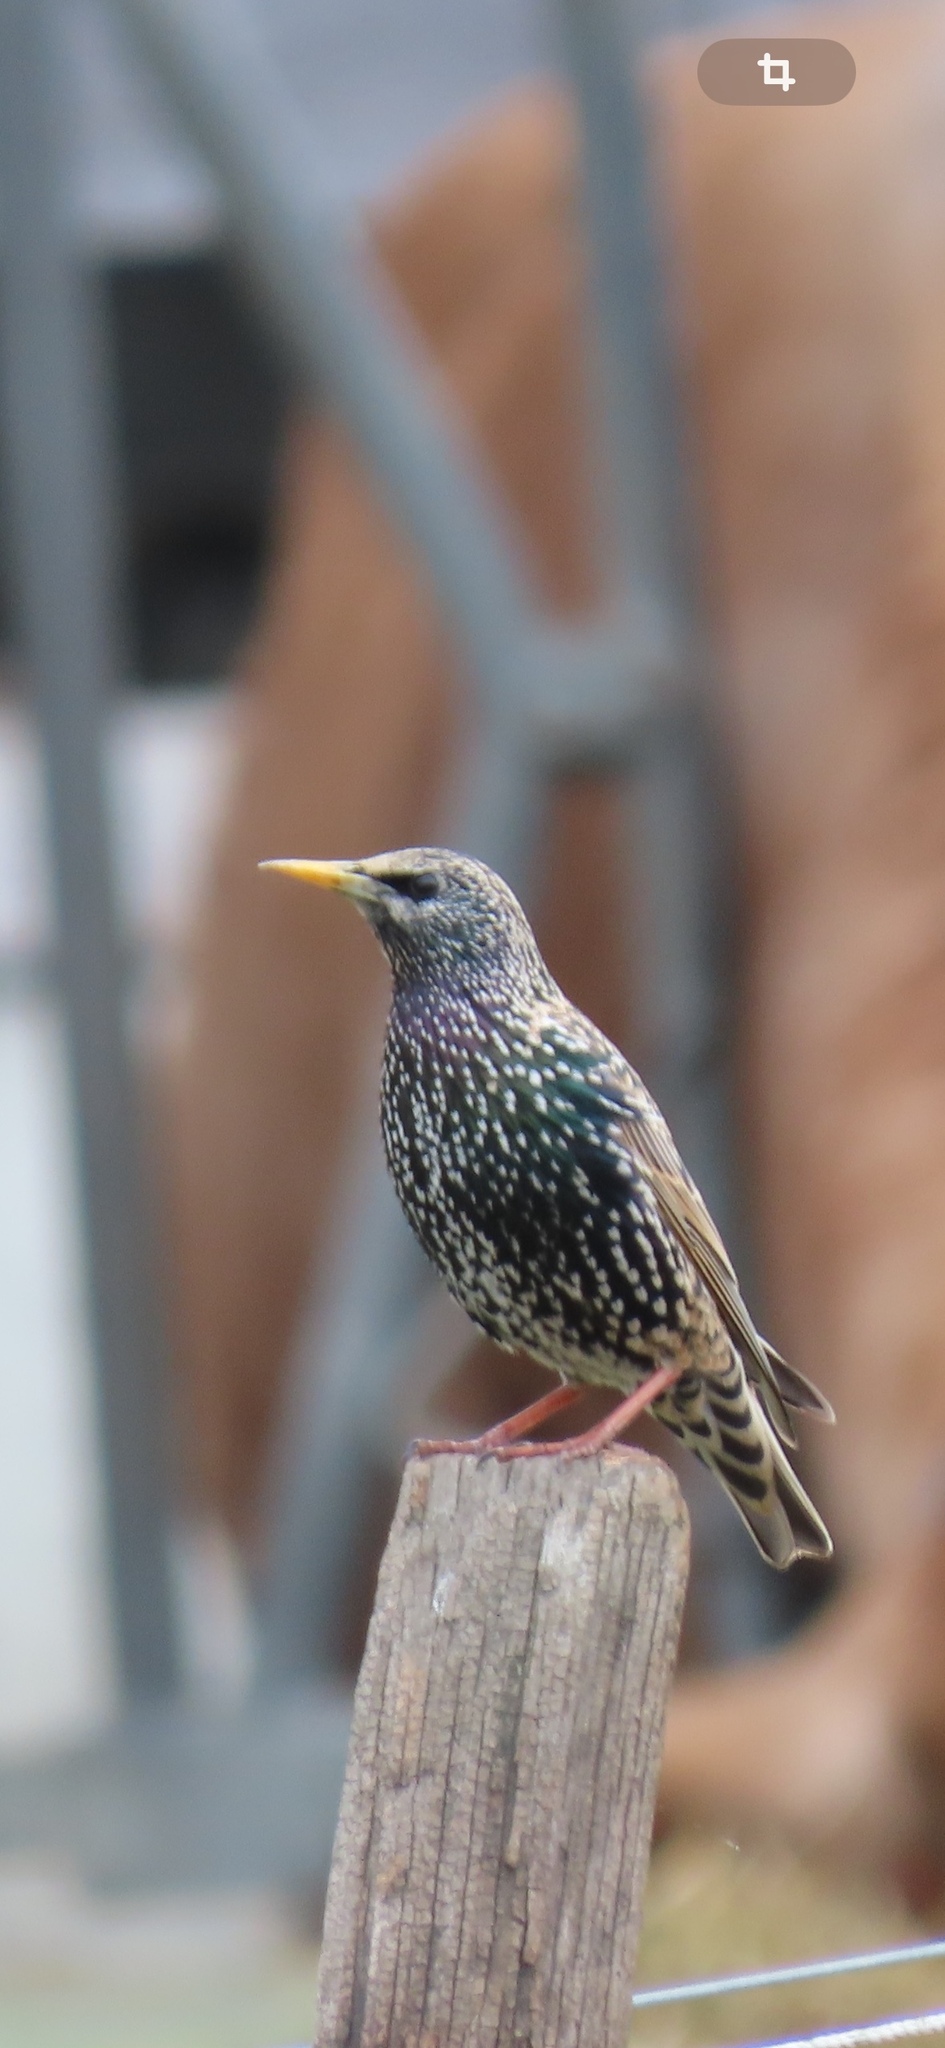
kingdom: Animalia
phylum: Chordata
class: Aves
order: Passeriformes
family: Sturnidae
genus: Sturnus
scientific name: Sturnus vulgaris
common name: Common starling
